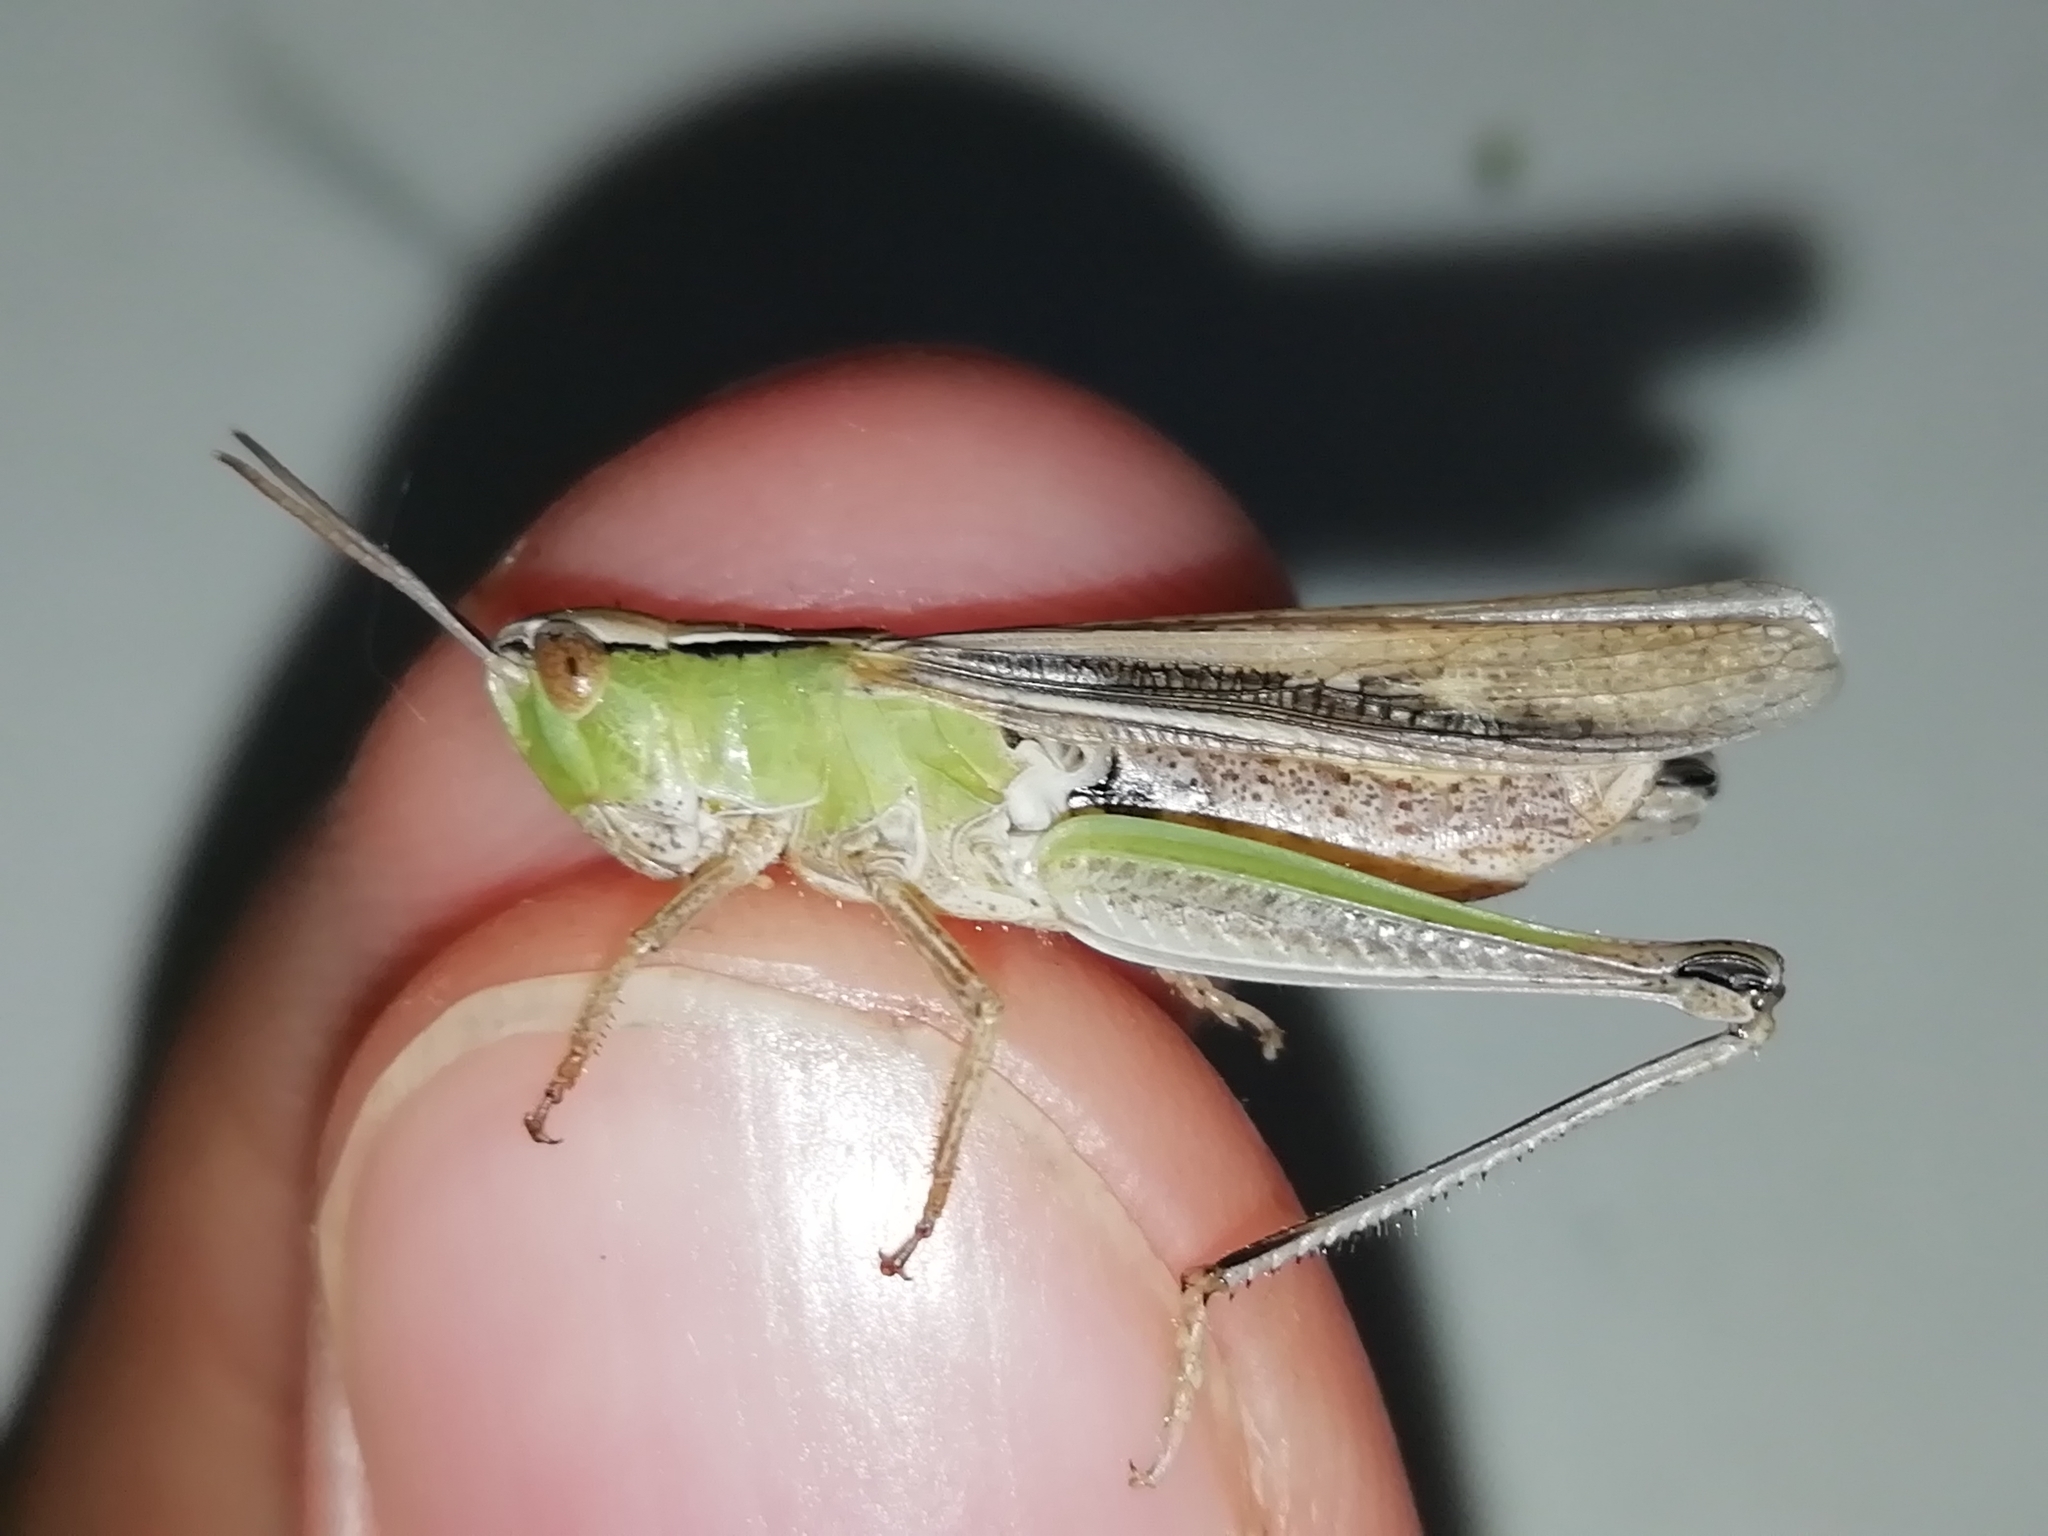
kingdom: Animalia
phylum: Arthropoda
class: Insecta
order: Orthoptera
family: Acrididae
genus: Chorthippus
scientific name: Chorthippus karelini
